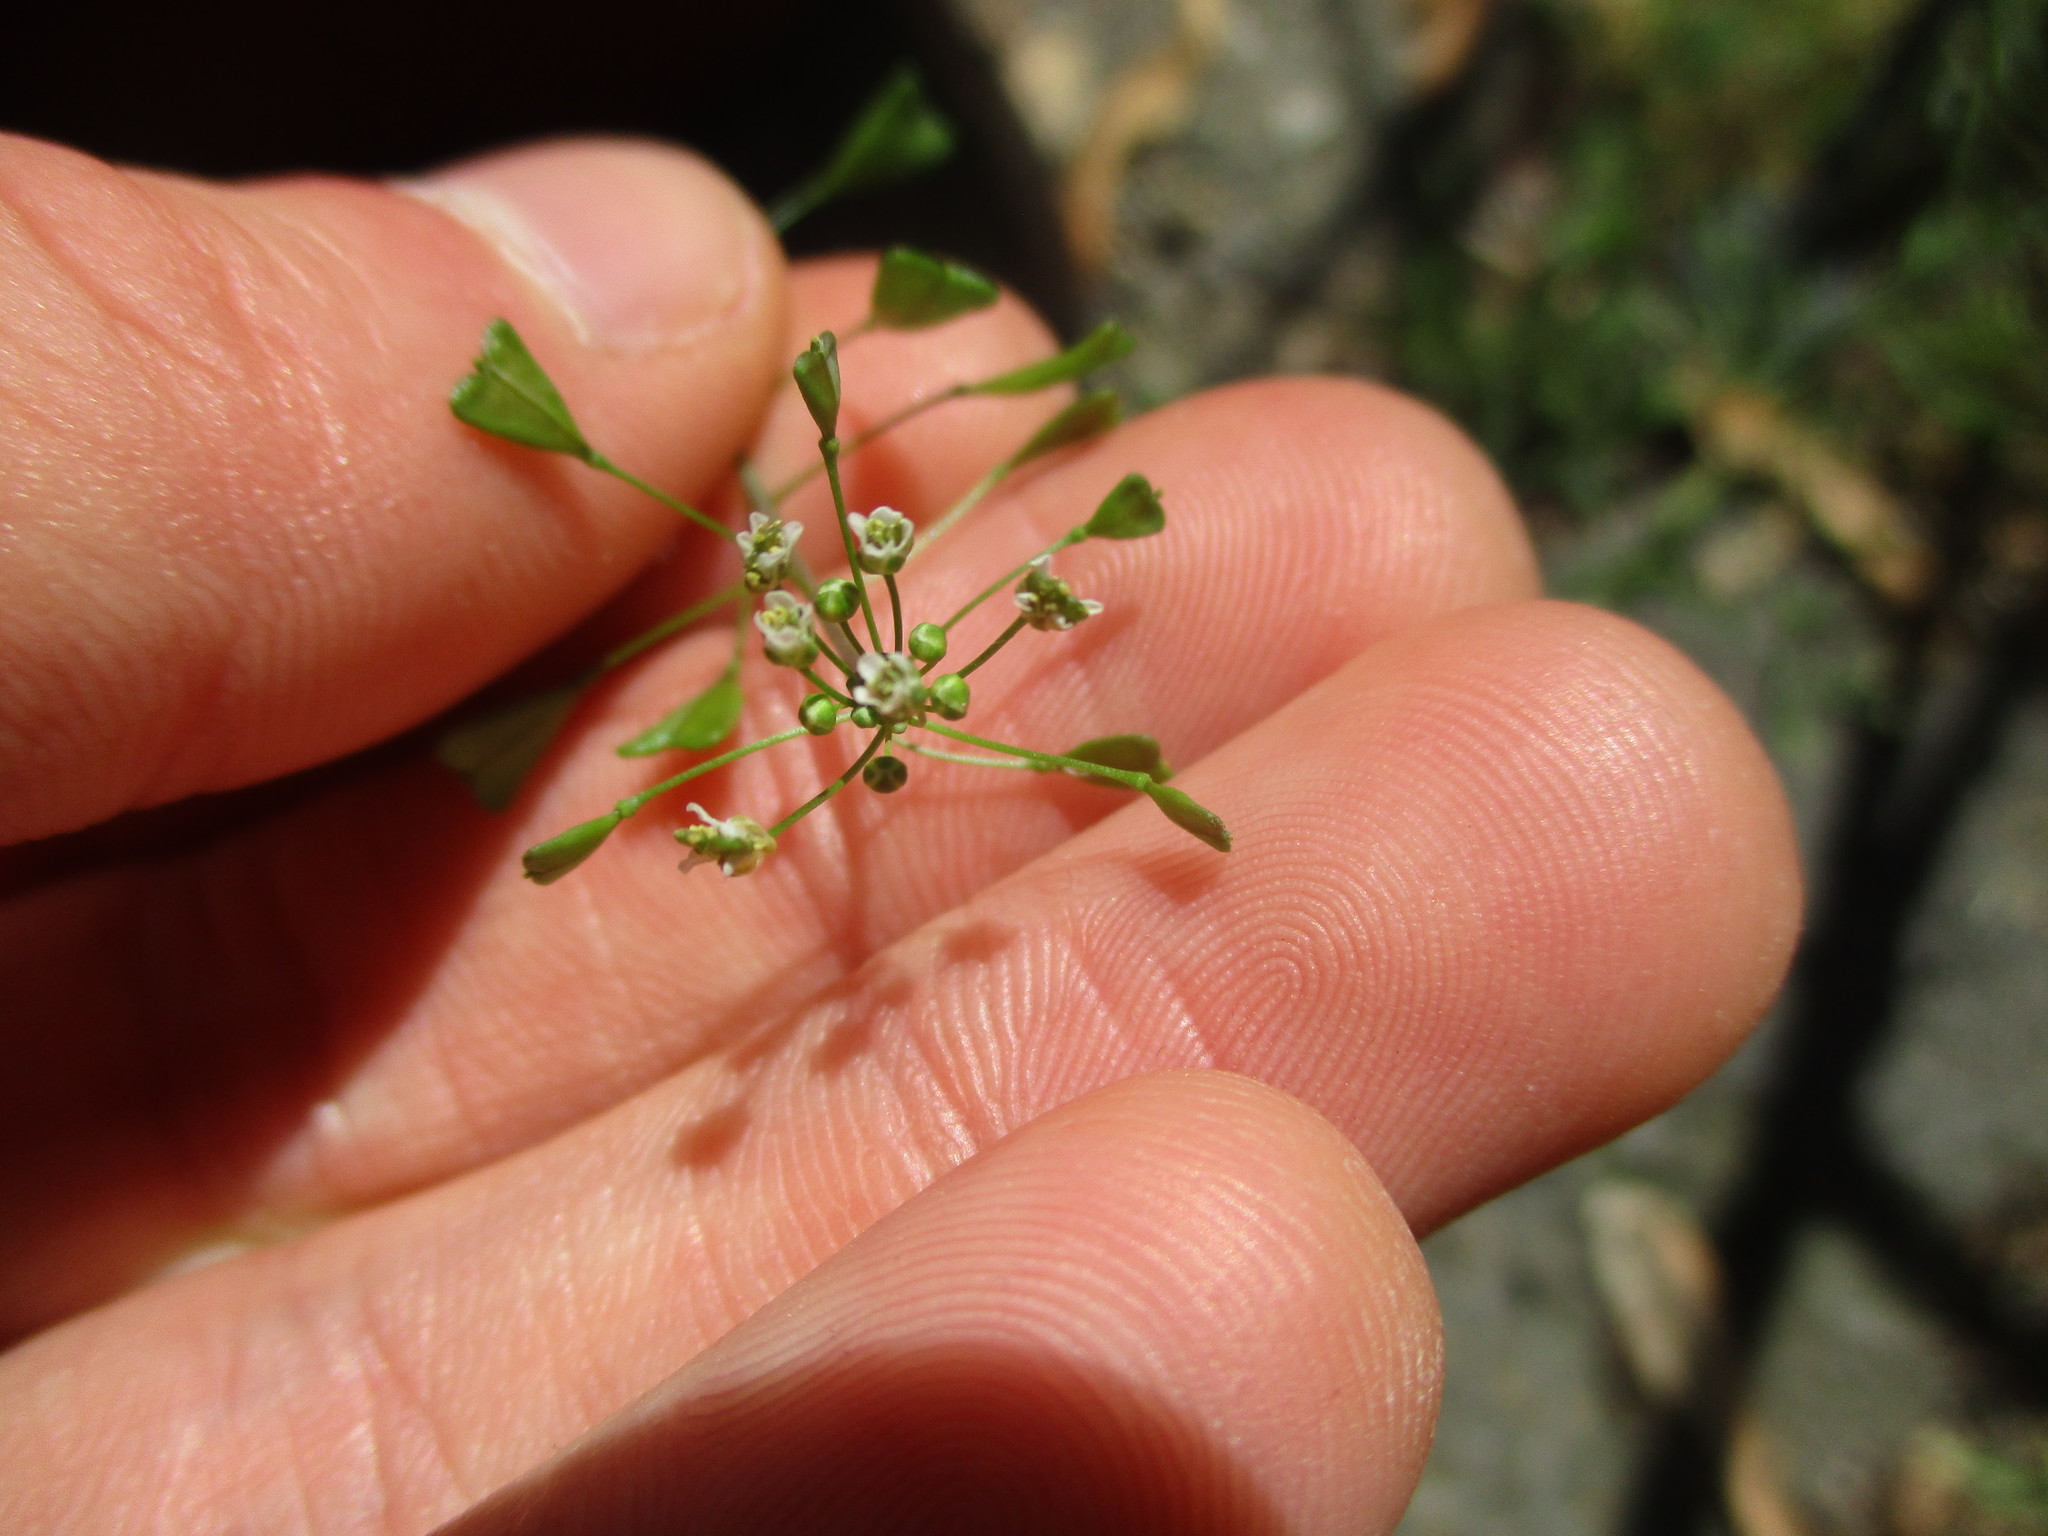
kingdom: Plantae
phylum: Tracheophyta
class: Magnoliopsida
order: Brassicales
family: Brassicaceae
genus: Capsella
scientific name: Capsella bursa-pastoris
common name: Shepherd's purse
